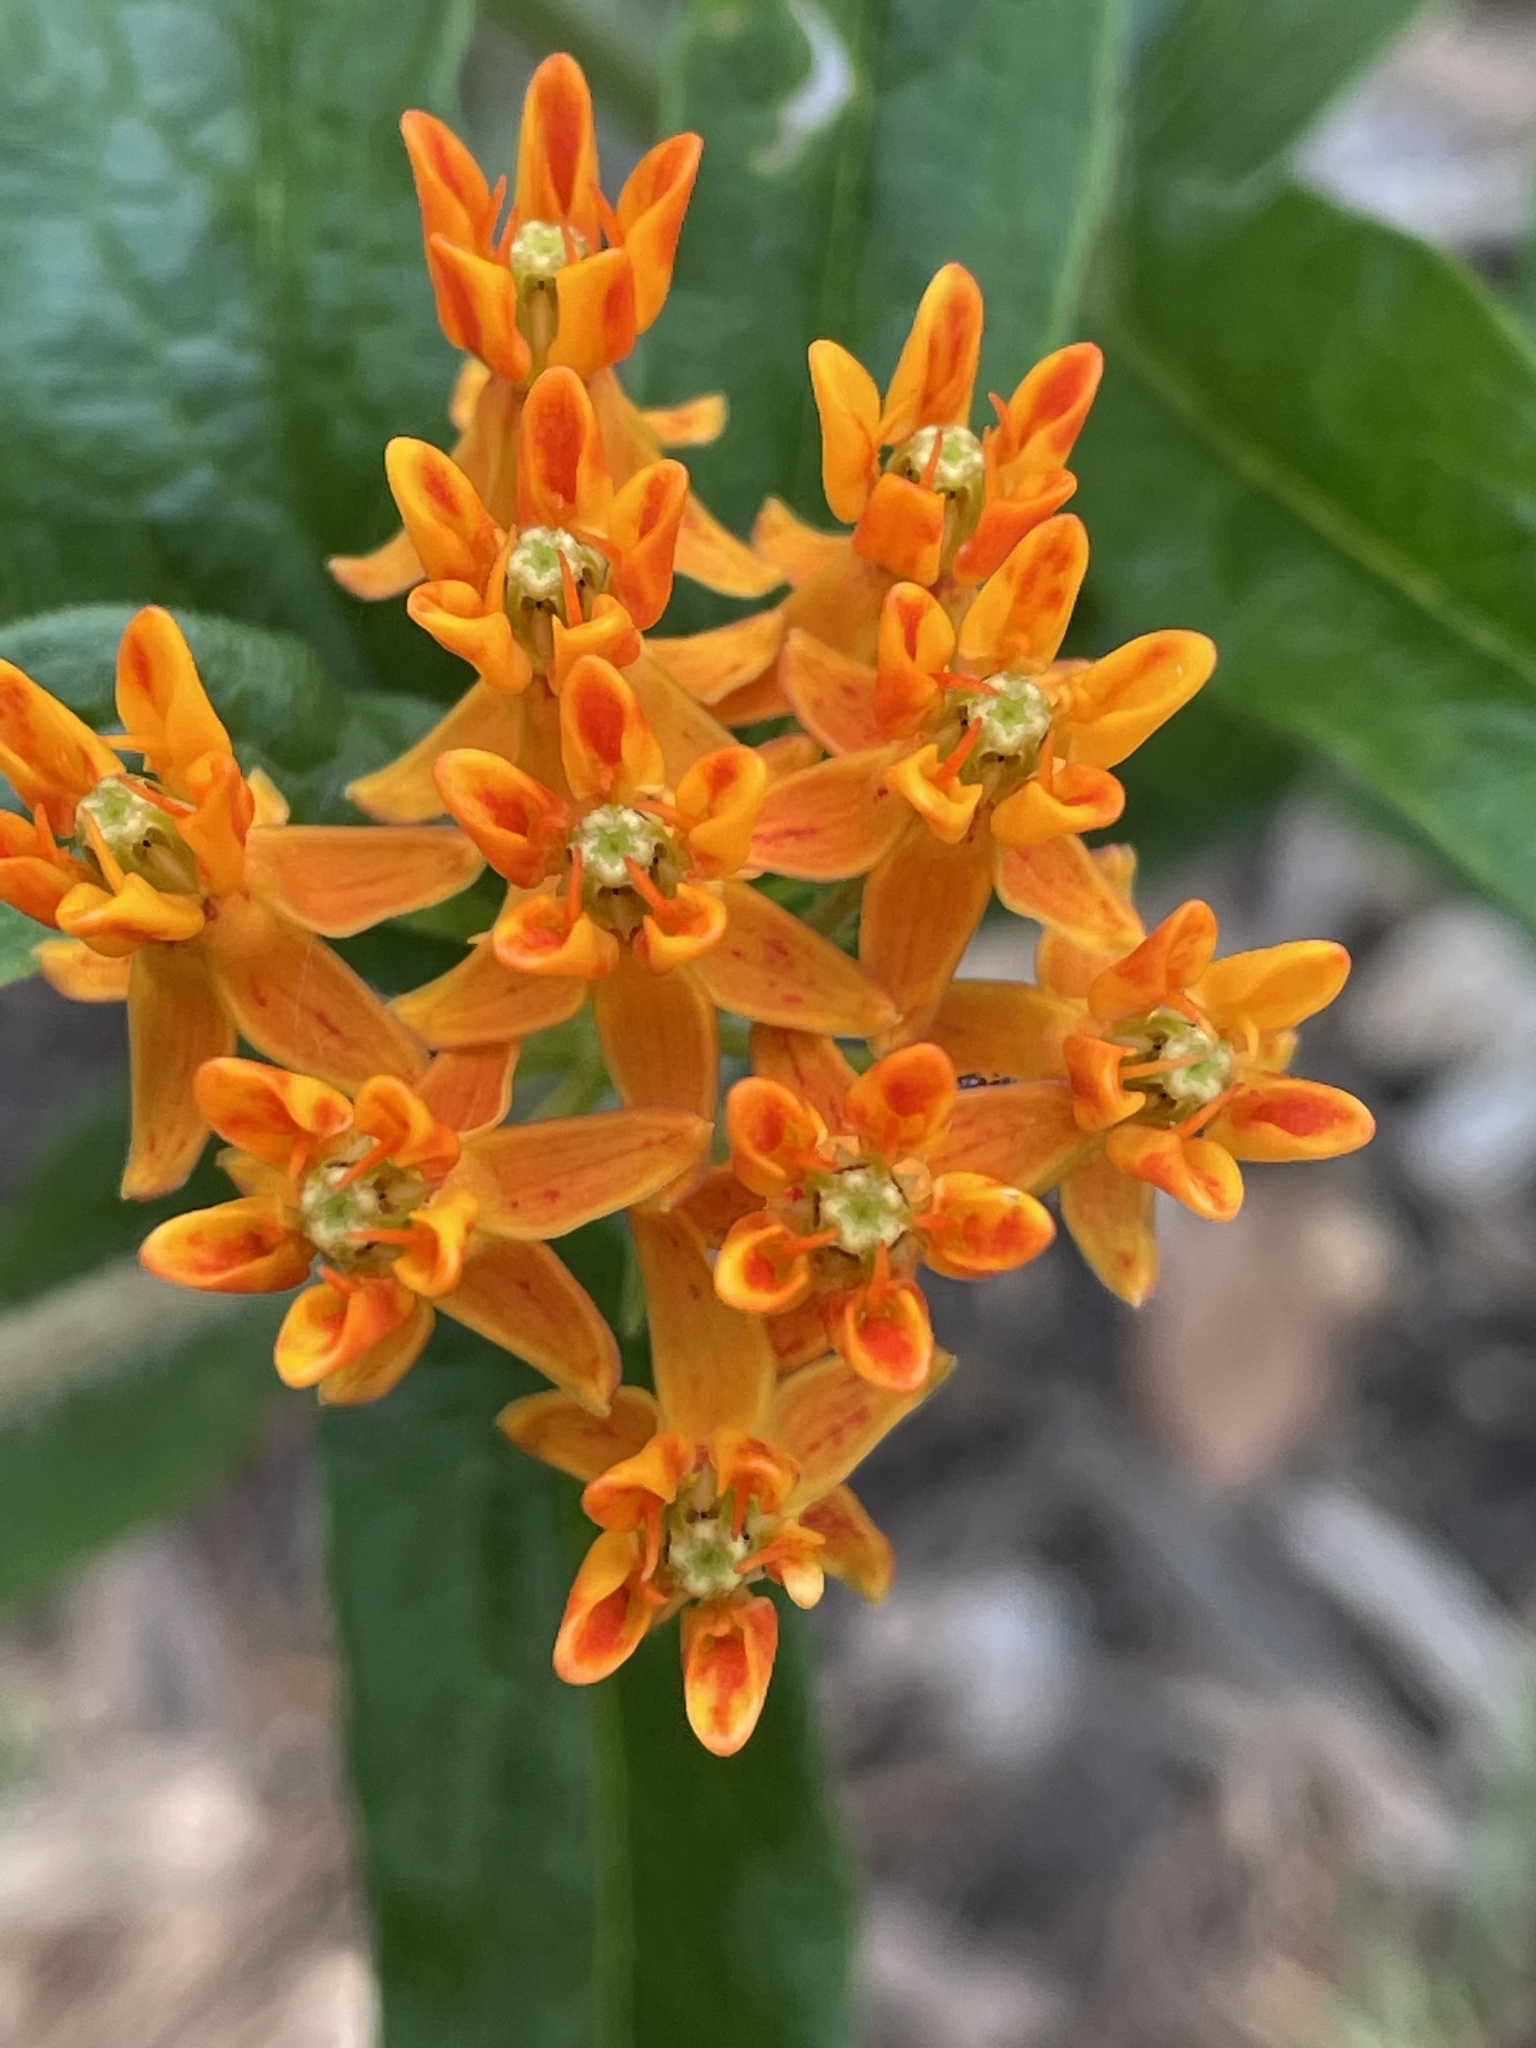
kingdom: Plantae
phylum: Tracheophyta
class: Magnoliopsida
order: Gentianales
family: Apocynaceae
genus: Asclepias
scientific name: Asclepias tuberosa
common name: Butterfly milkweed
